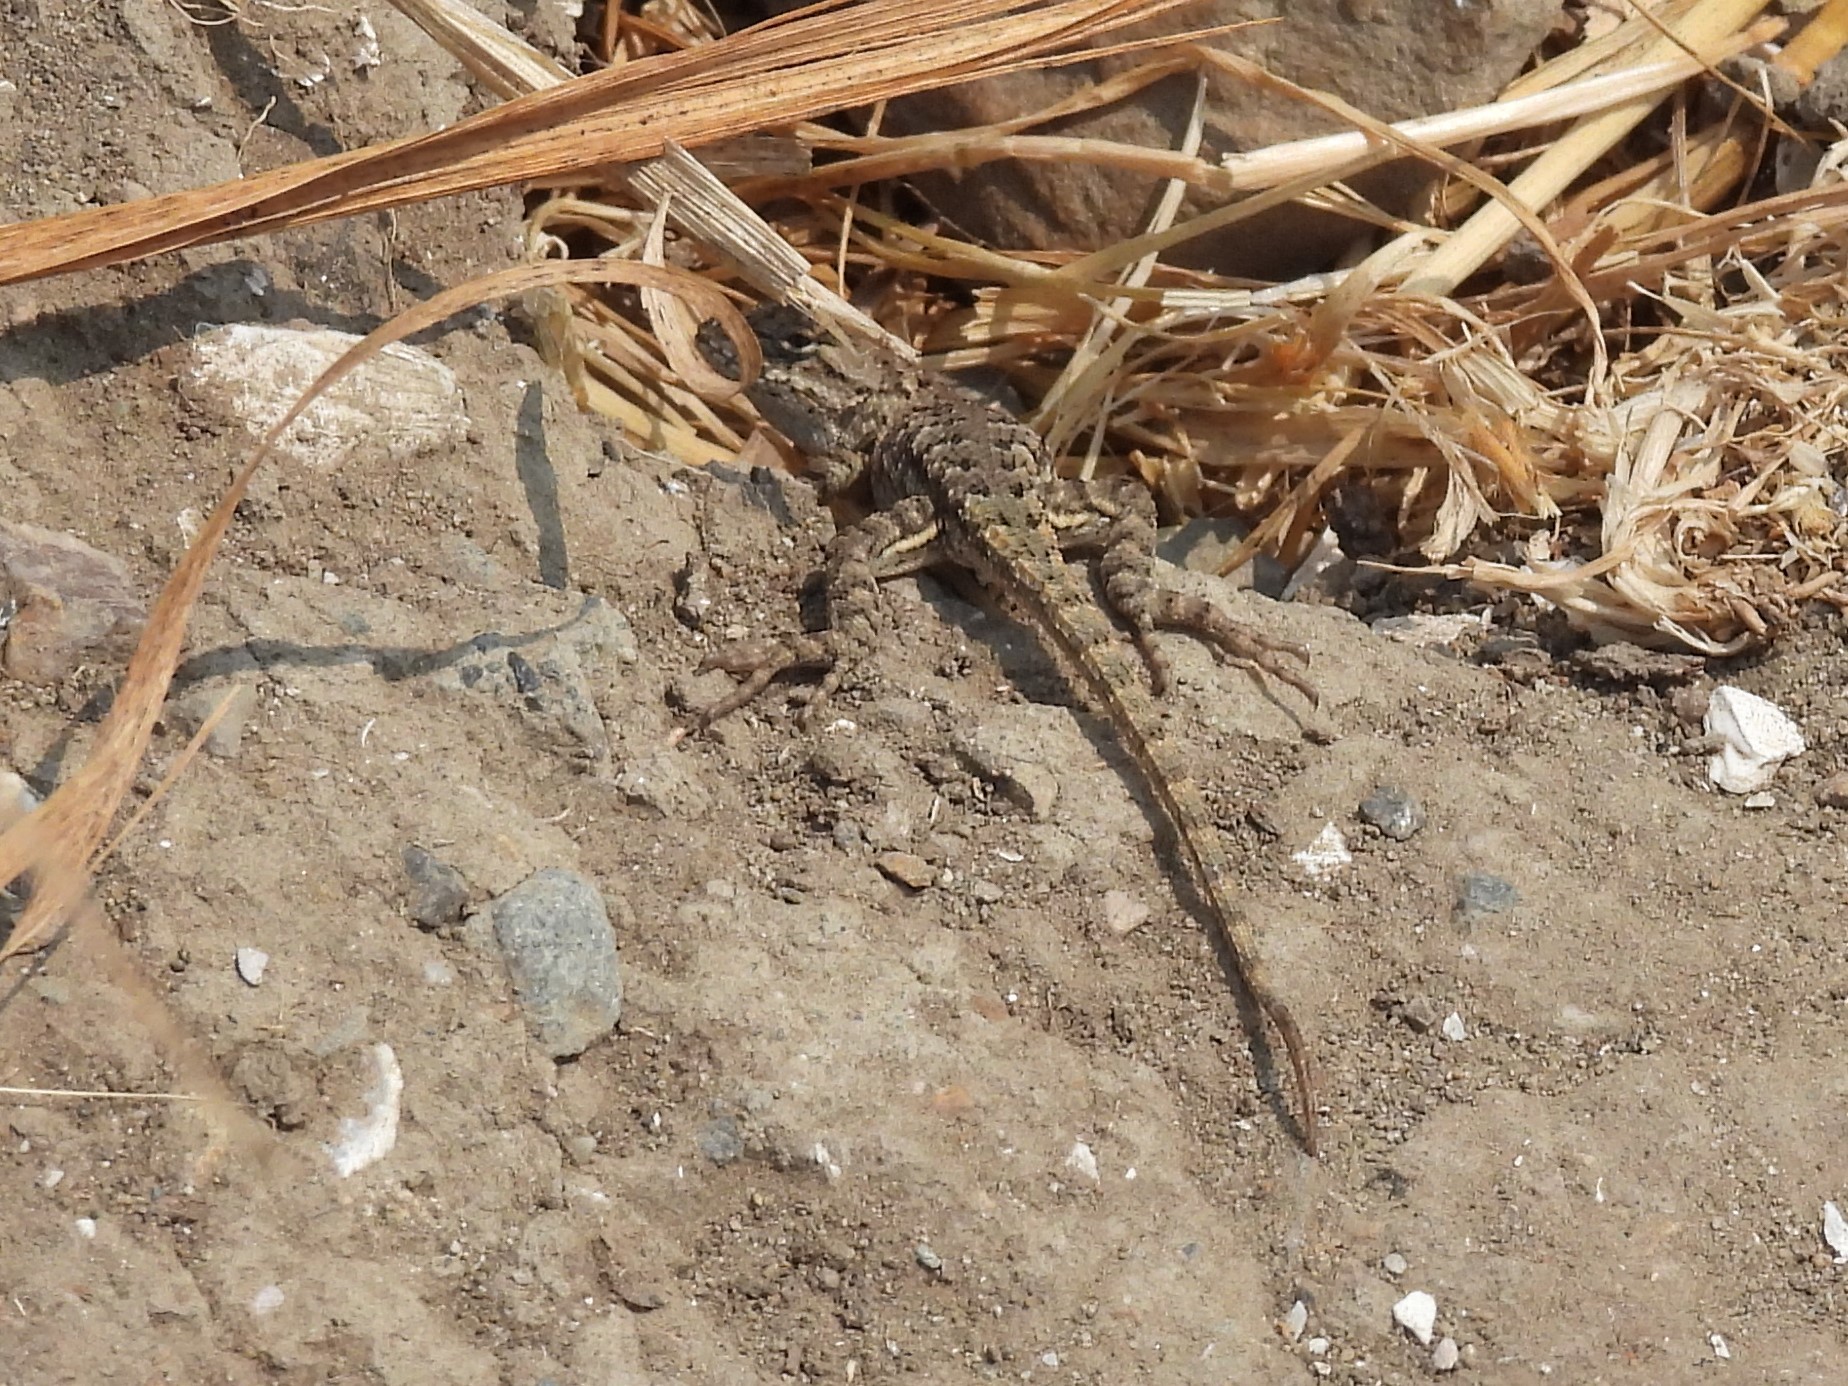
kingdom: Animalia
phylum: Chordata
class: Squamata
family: Phrynosomatidae
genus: Sceloporus
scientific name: Sceloporus occidentalis
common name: Western fence lizard
